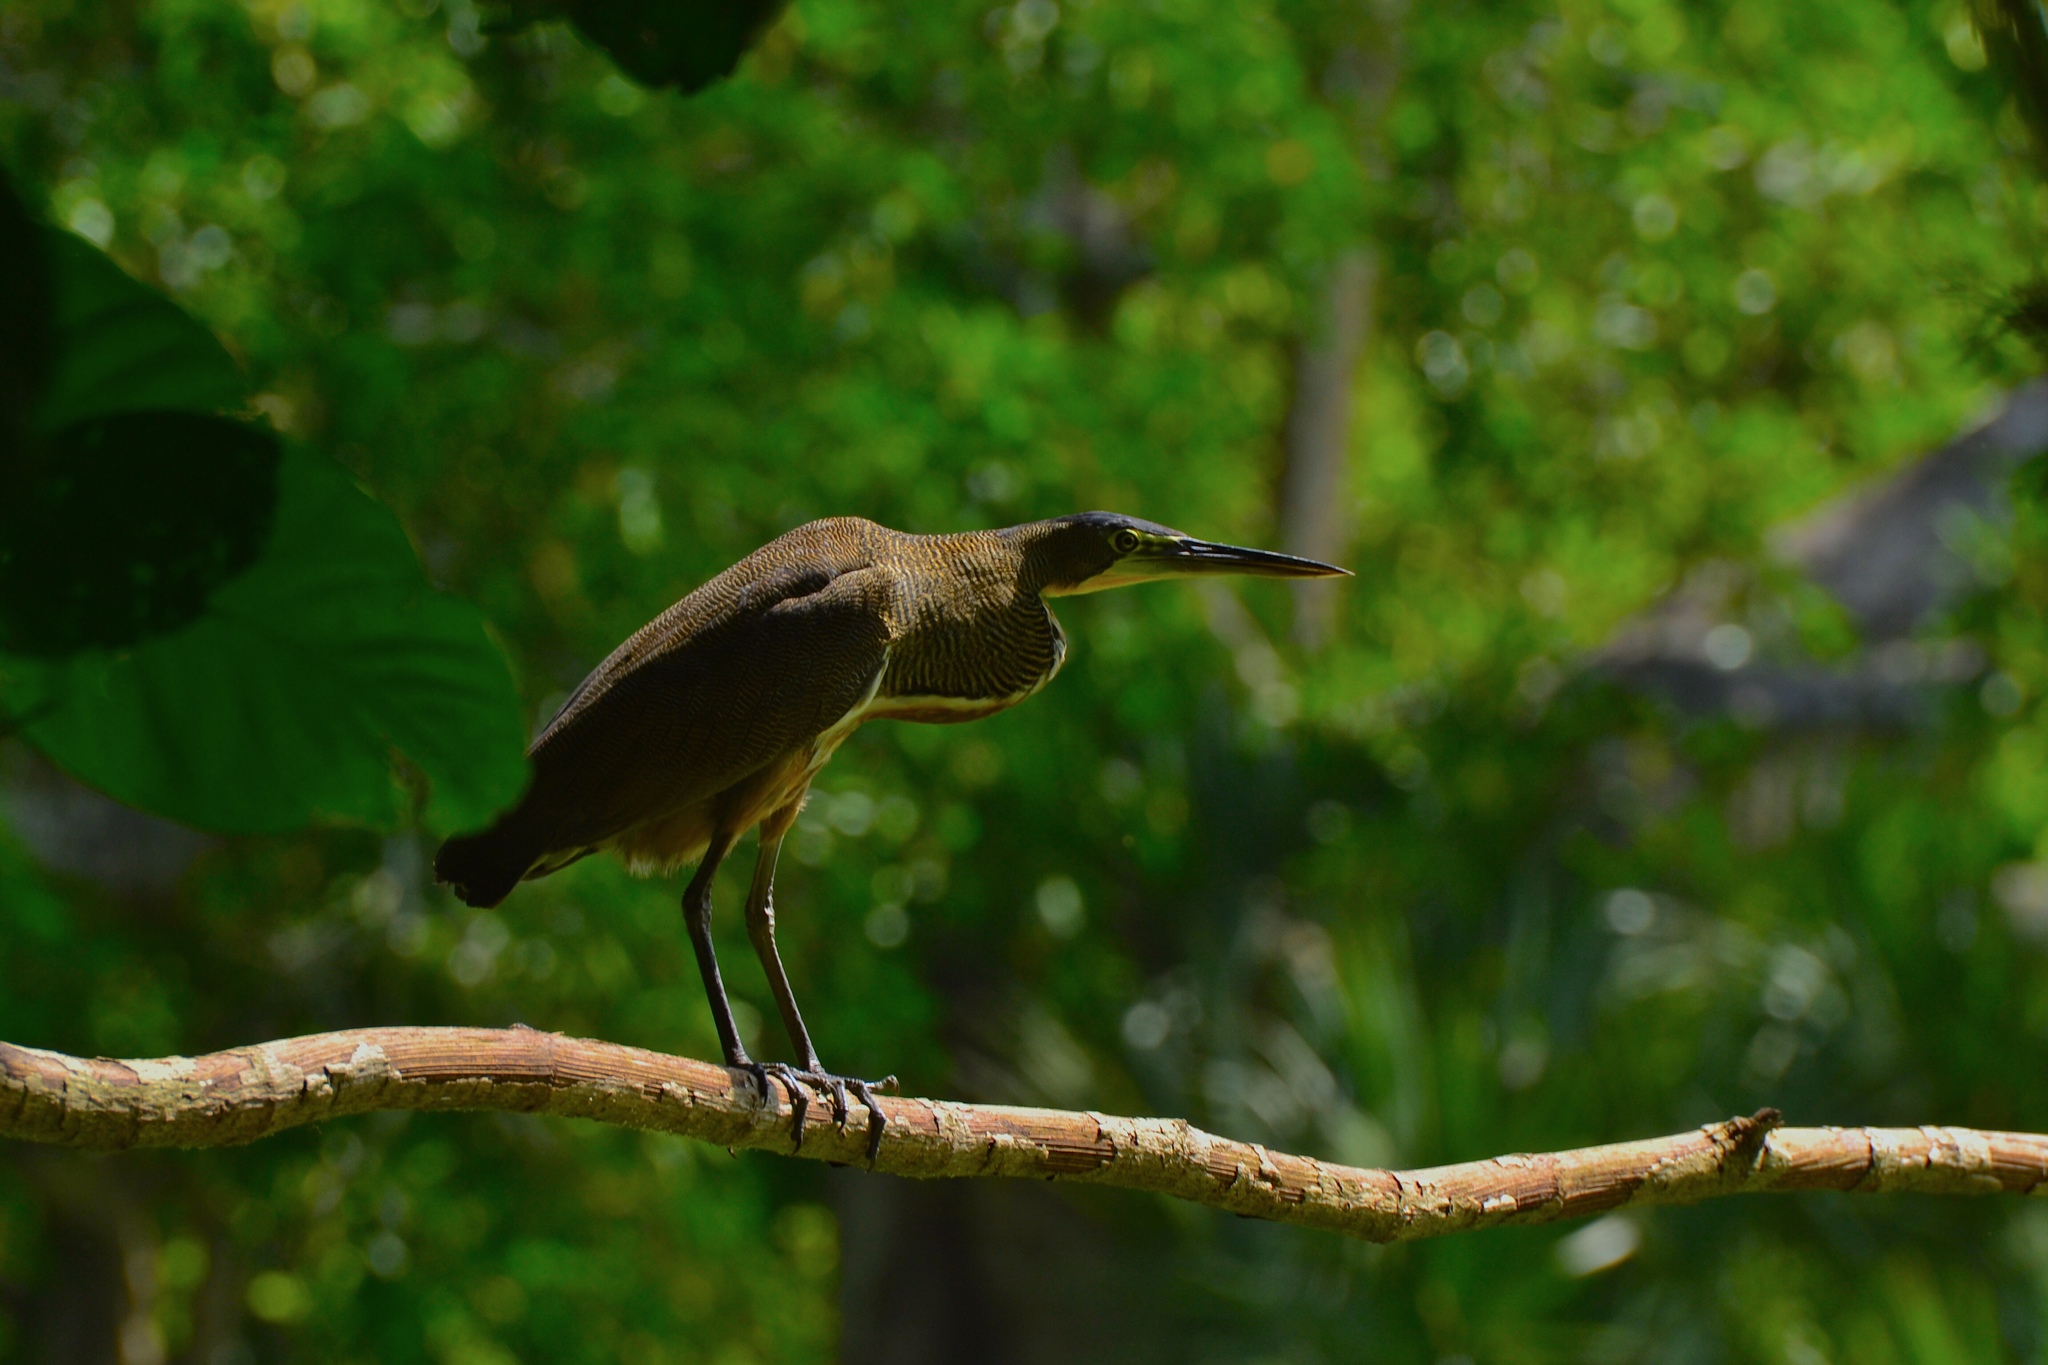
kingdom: Animalia
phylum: Chordata
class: Aves
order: Pelecaniformes
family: Ardeidae
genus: Tigrisoma
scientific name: Tigrisoma mexicanum
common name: Bare-throated tiger-heron
